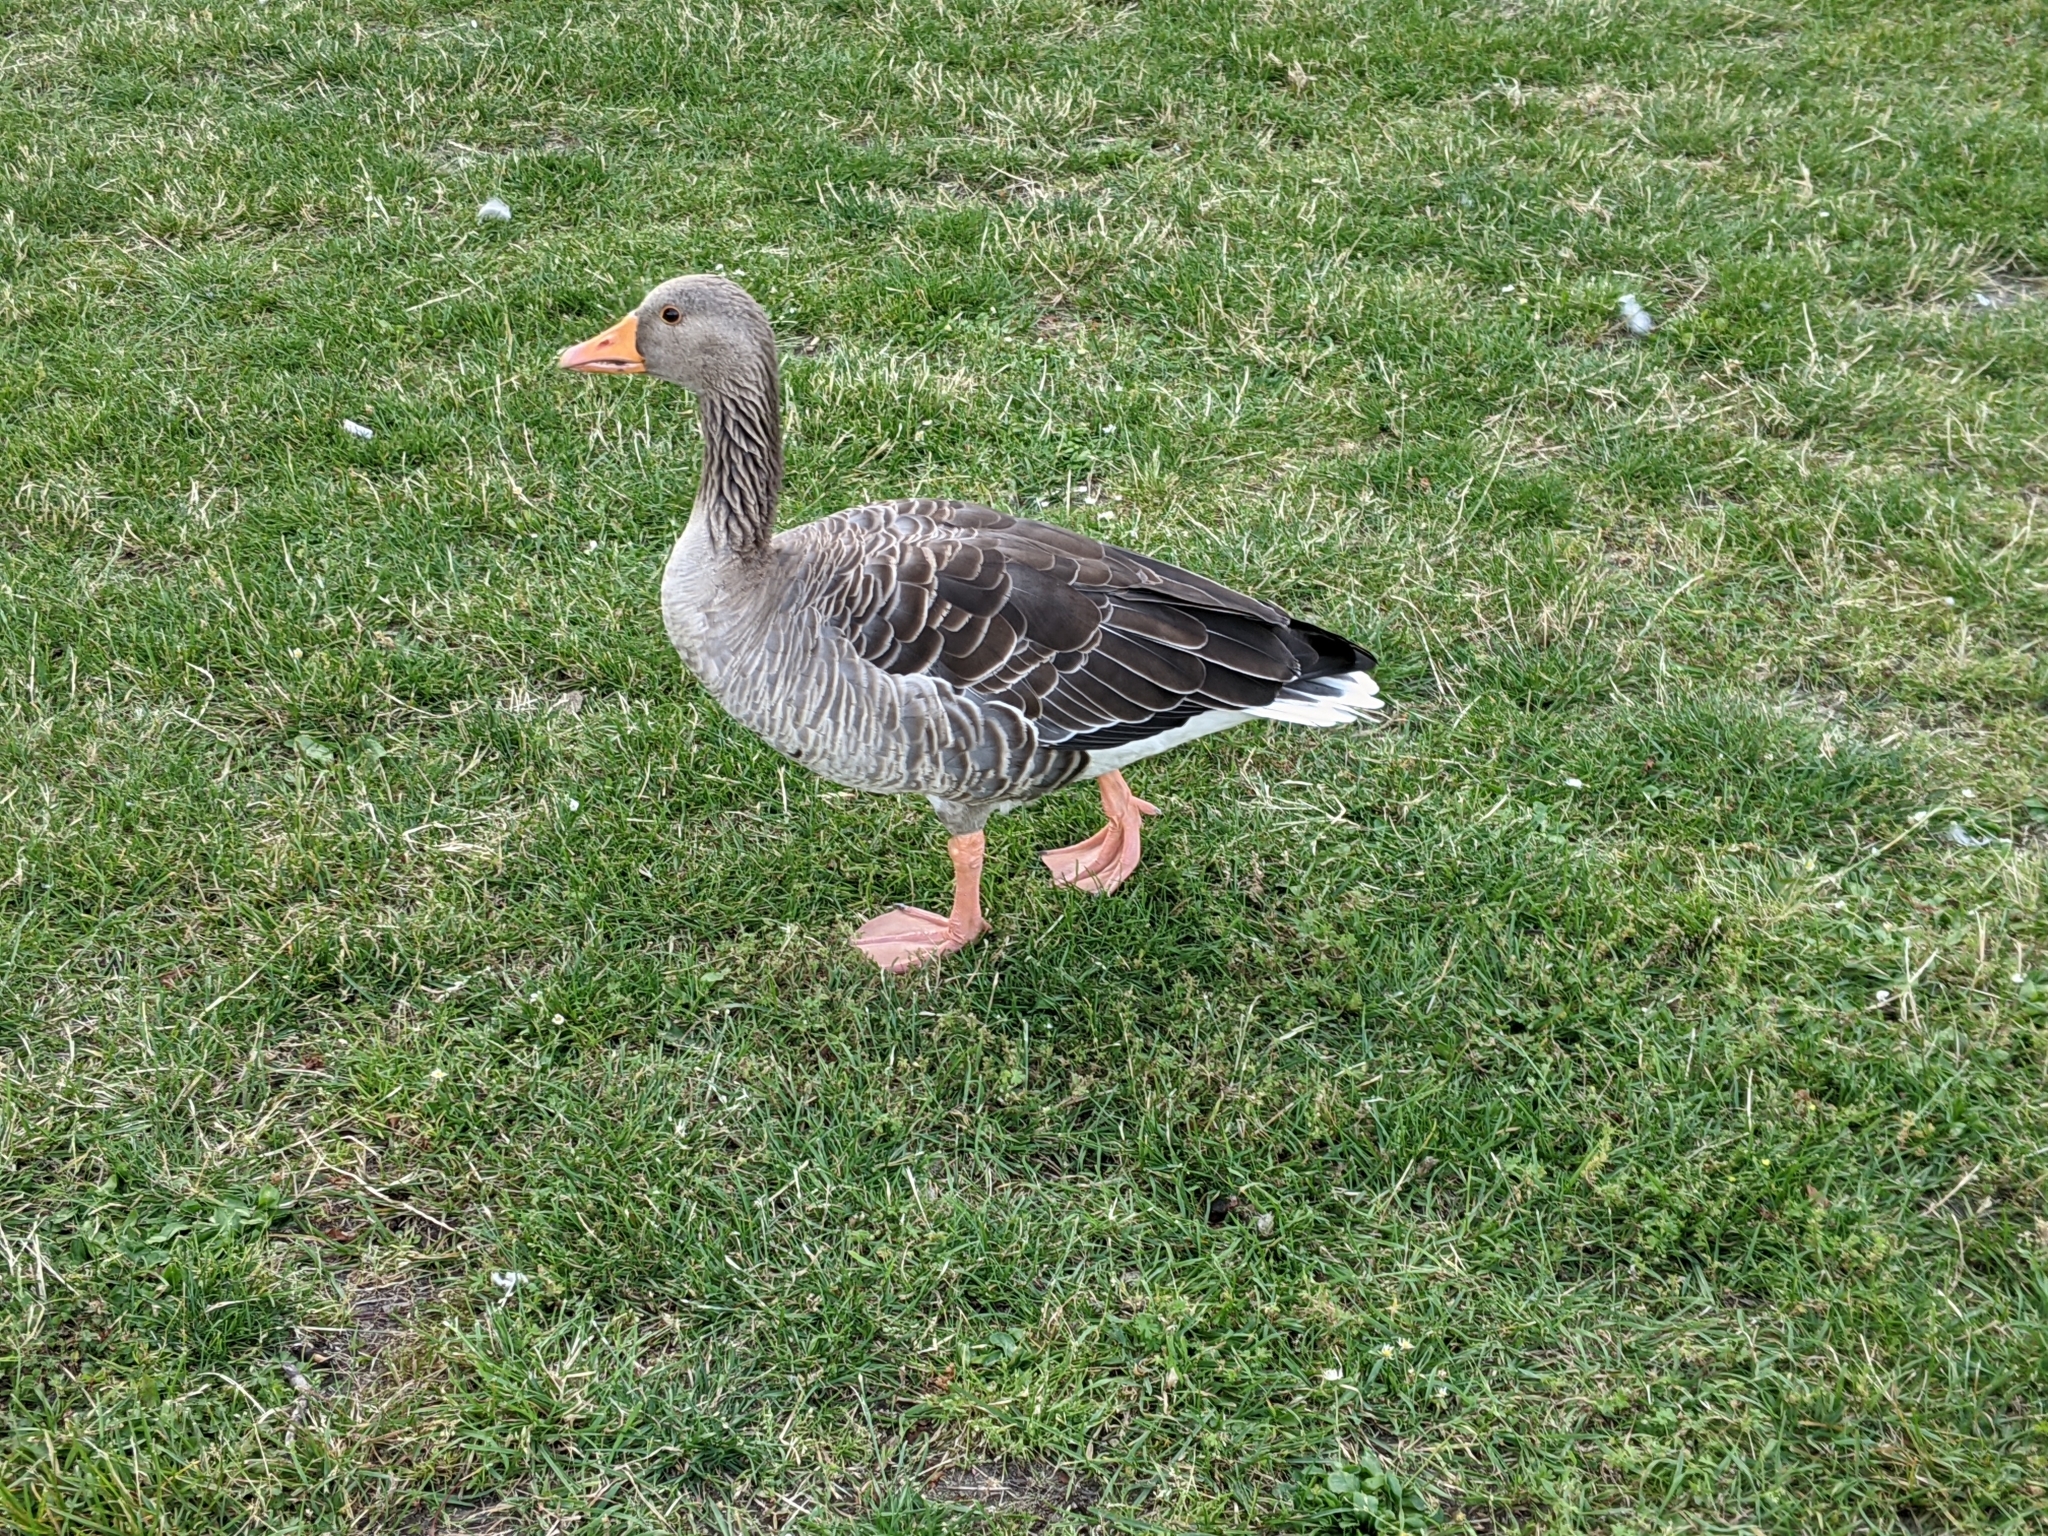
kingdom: Animalia
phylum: Chordata
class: Aves
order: Anseriformes
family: Anatidae
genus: Anser
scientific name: Anser anser
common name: Greylag goose
